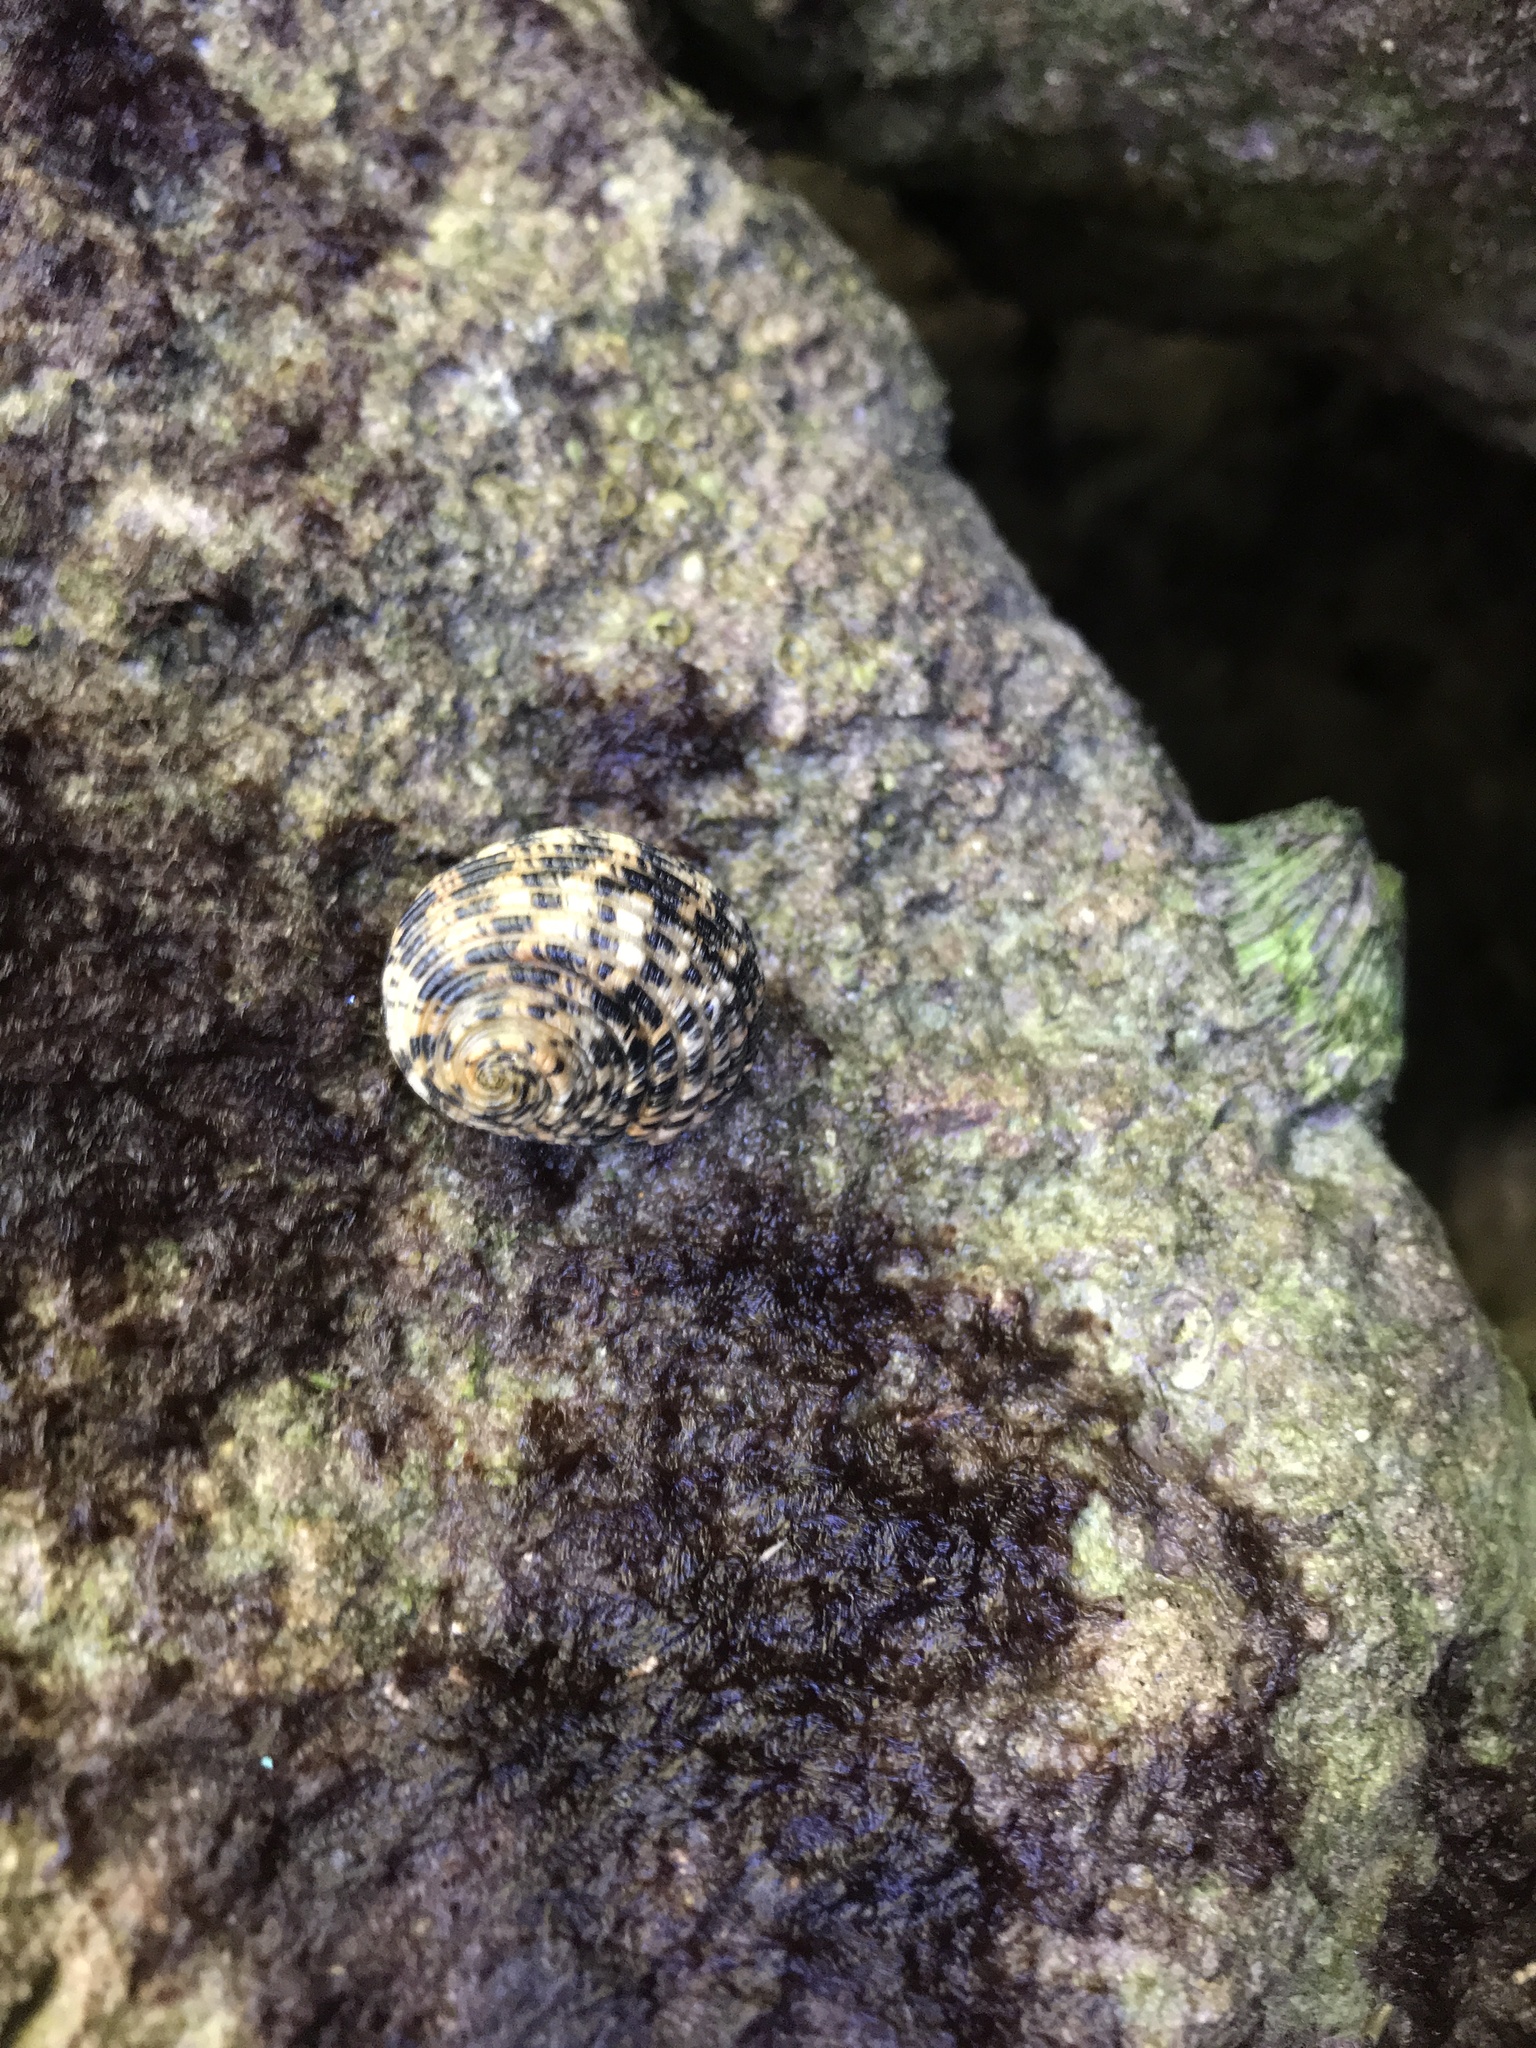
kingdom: Animalia
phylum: Mollusca
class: Gastropoda
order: Cycloneritida
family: Neritidae
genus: Nerita
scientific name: Nerita tessellata
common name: Checkered nerite
